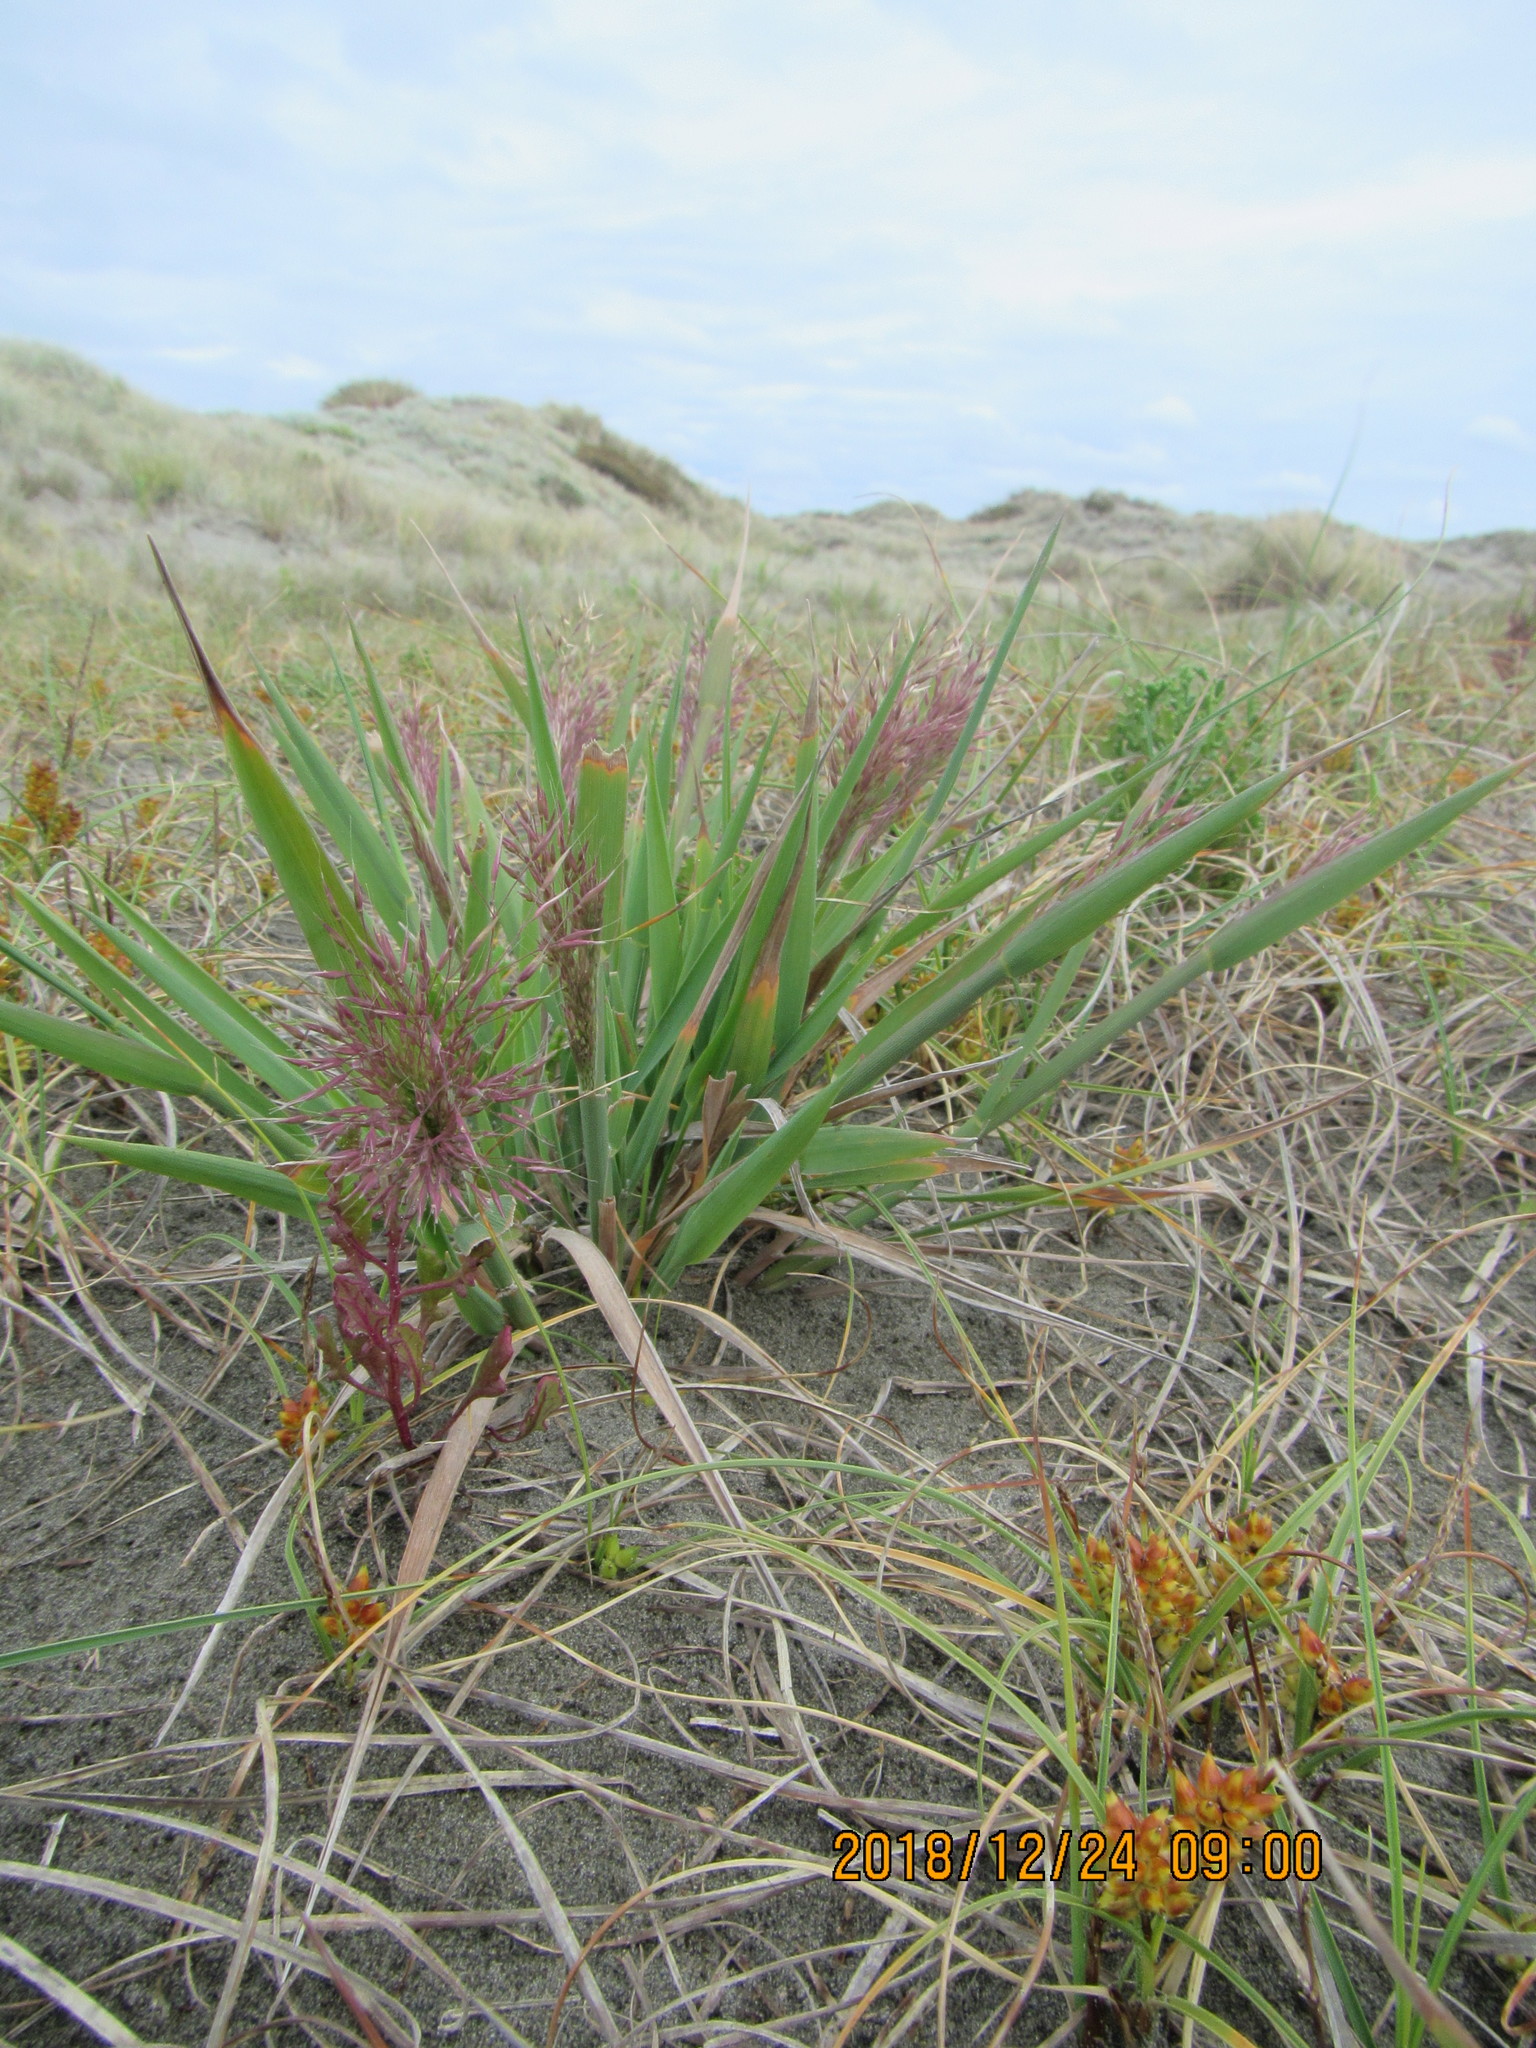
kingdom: Plantae
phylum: Tracheophyta
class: Liliopsida
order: Poales
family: Poaceae
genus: Lachnagrostis
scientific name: Lachnagrostis billardierei
